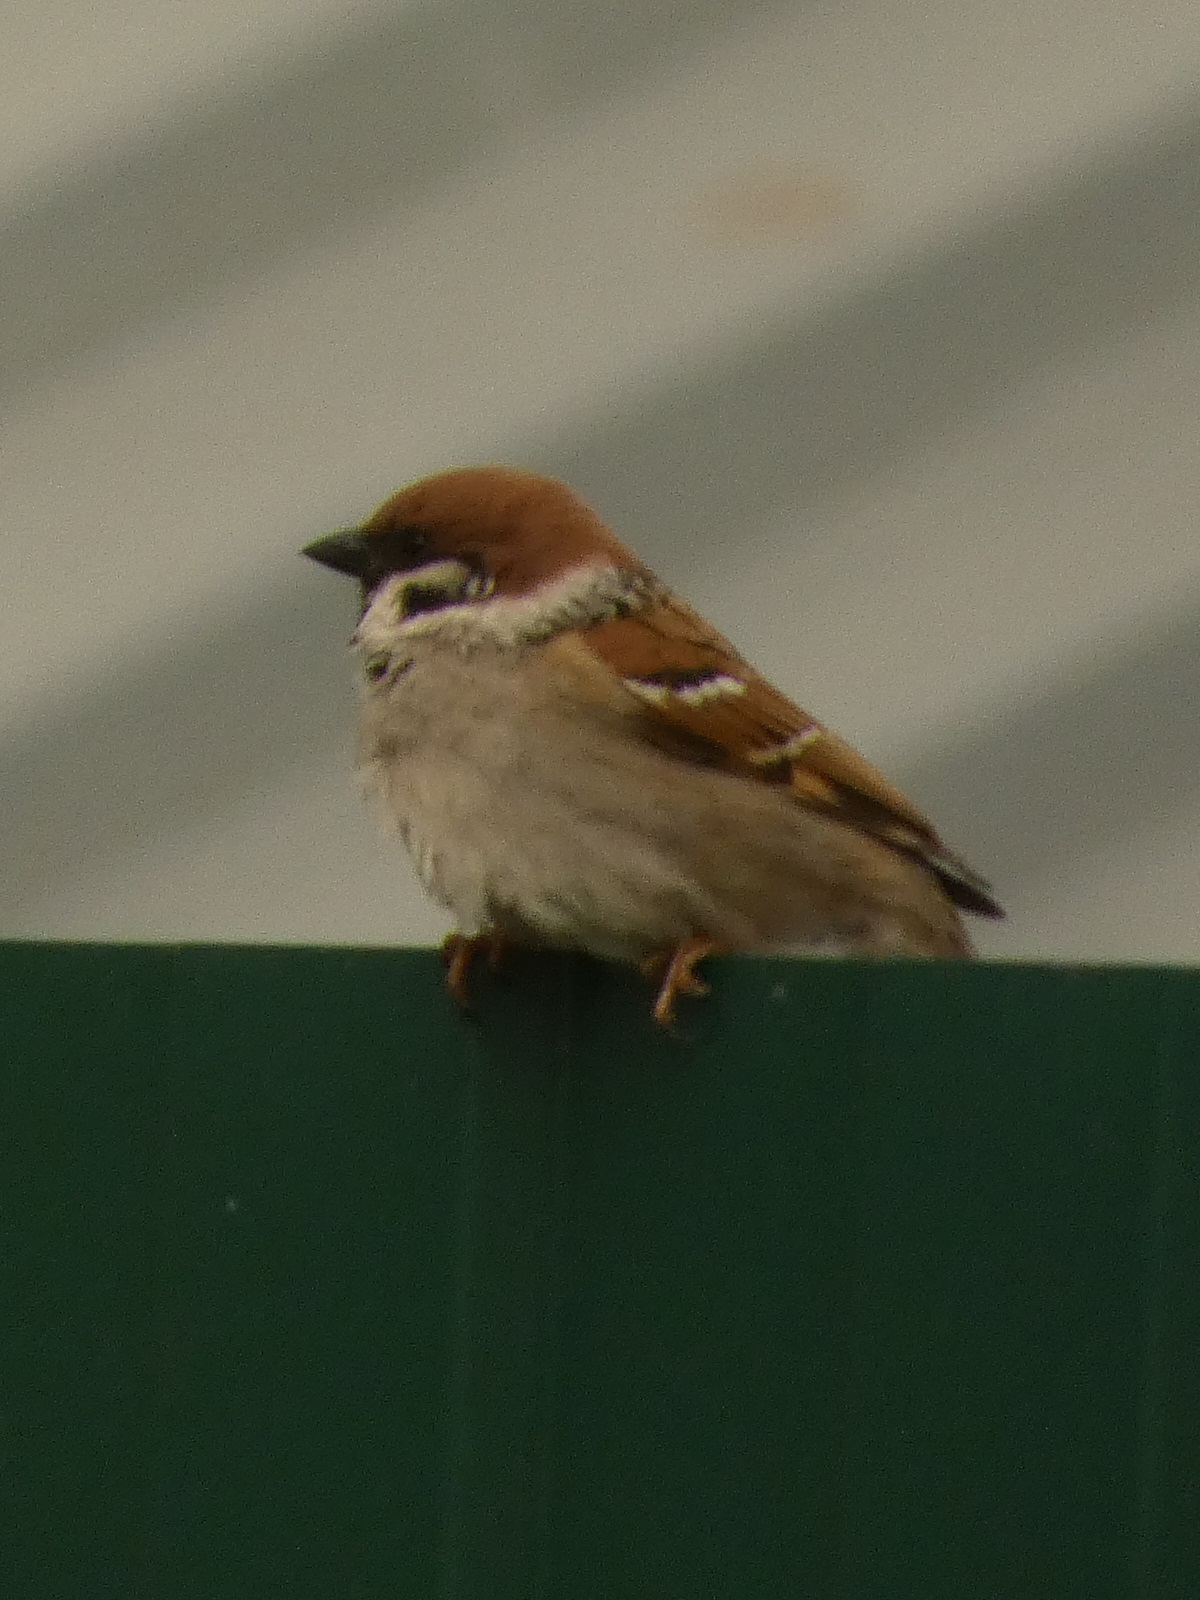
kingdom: Animalia
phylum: Chordata
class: Aves
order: Passeriformes
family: Passeridae
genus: Passer
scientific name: Passer montanus
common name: Eurasian tree sparrow
